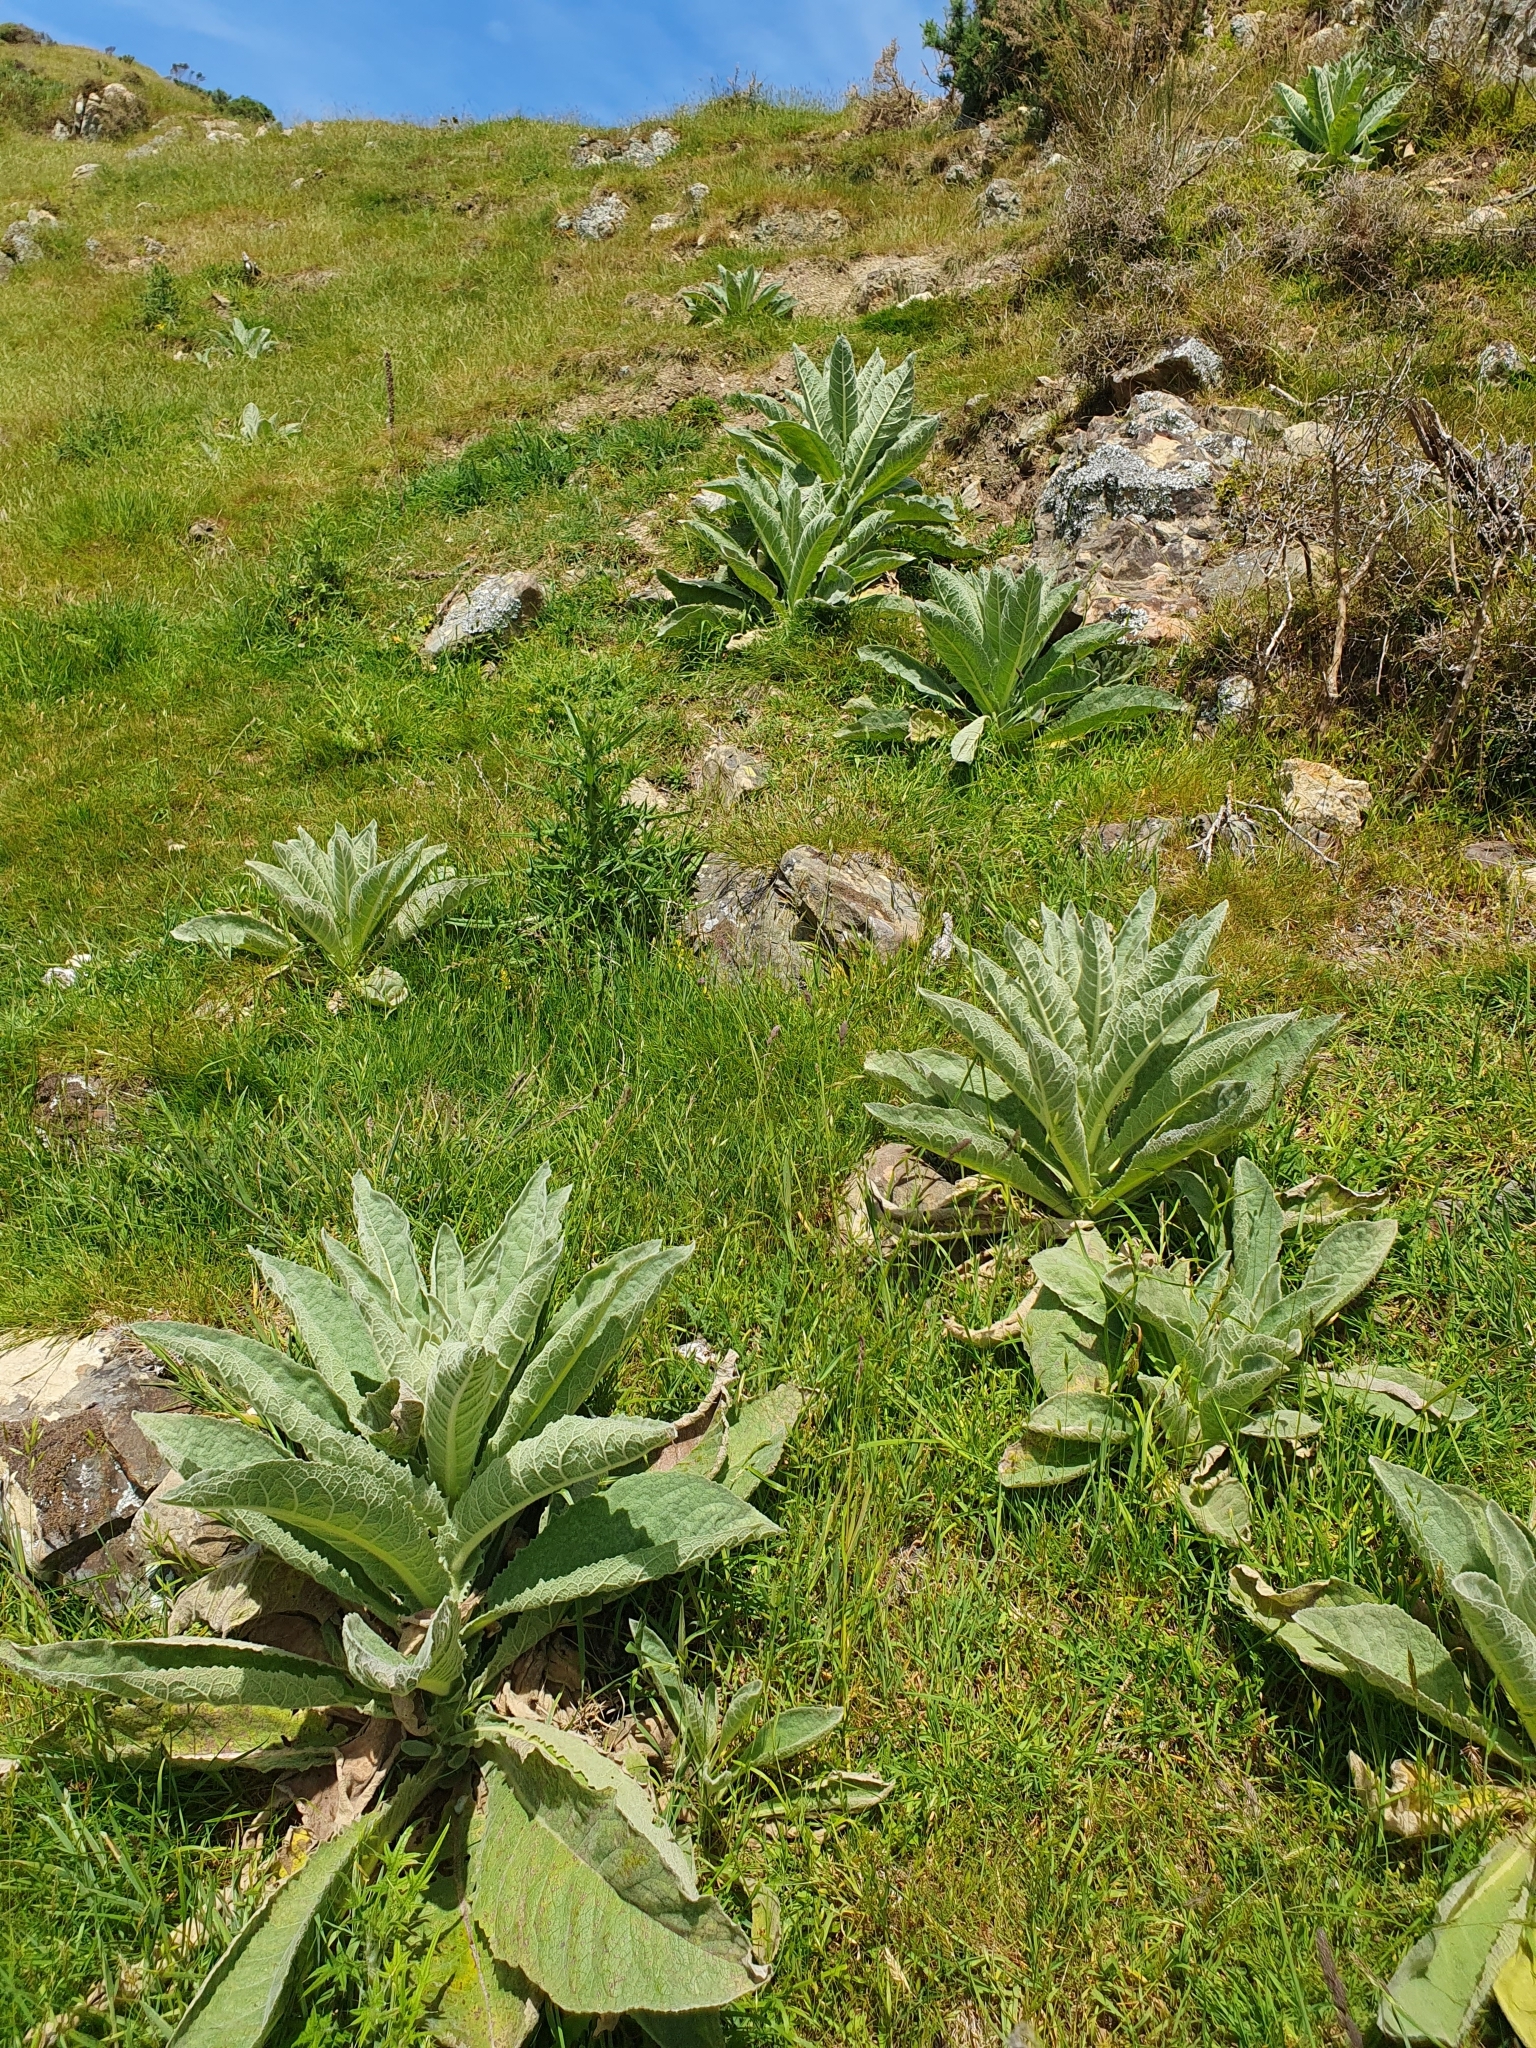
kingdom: Plantae
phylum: Tracheophyta
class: Magnoliopsida
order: Lamiales
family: Scrophulariaceae
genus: Verbascum
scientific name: Verbascum thapsus
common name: Common mullein
